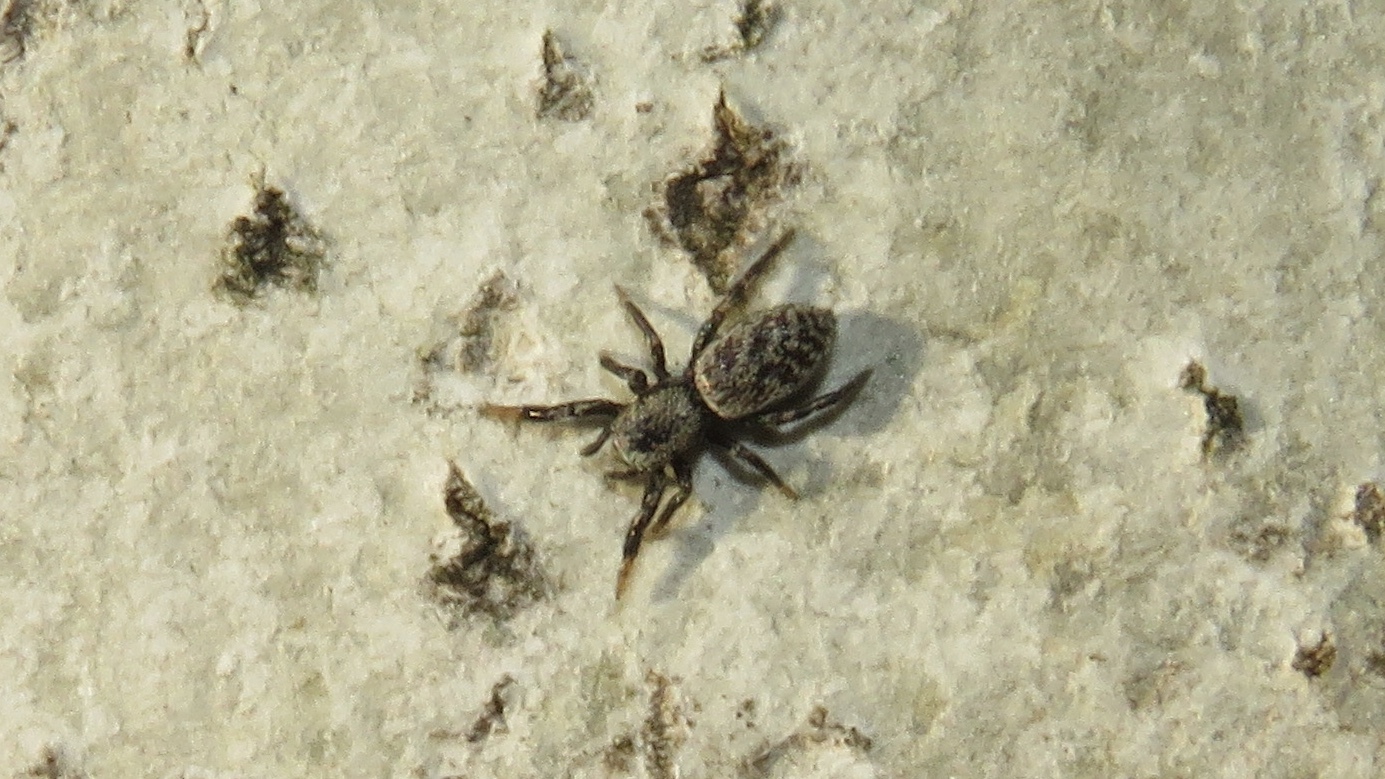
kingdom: Animalia
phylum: Arthropoda
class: Arachnida
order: Araneae
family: Salticidae
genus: Tutelina
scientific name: Tutelina harti
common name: Hart's jumping spider
